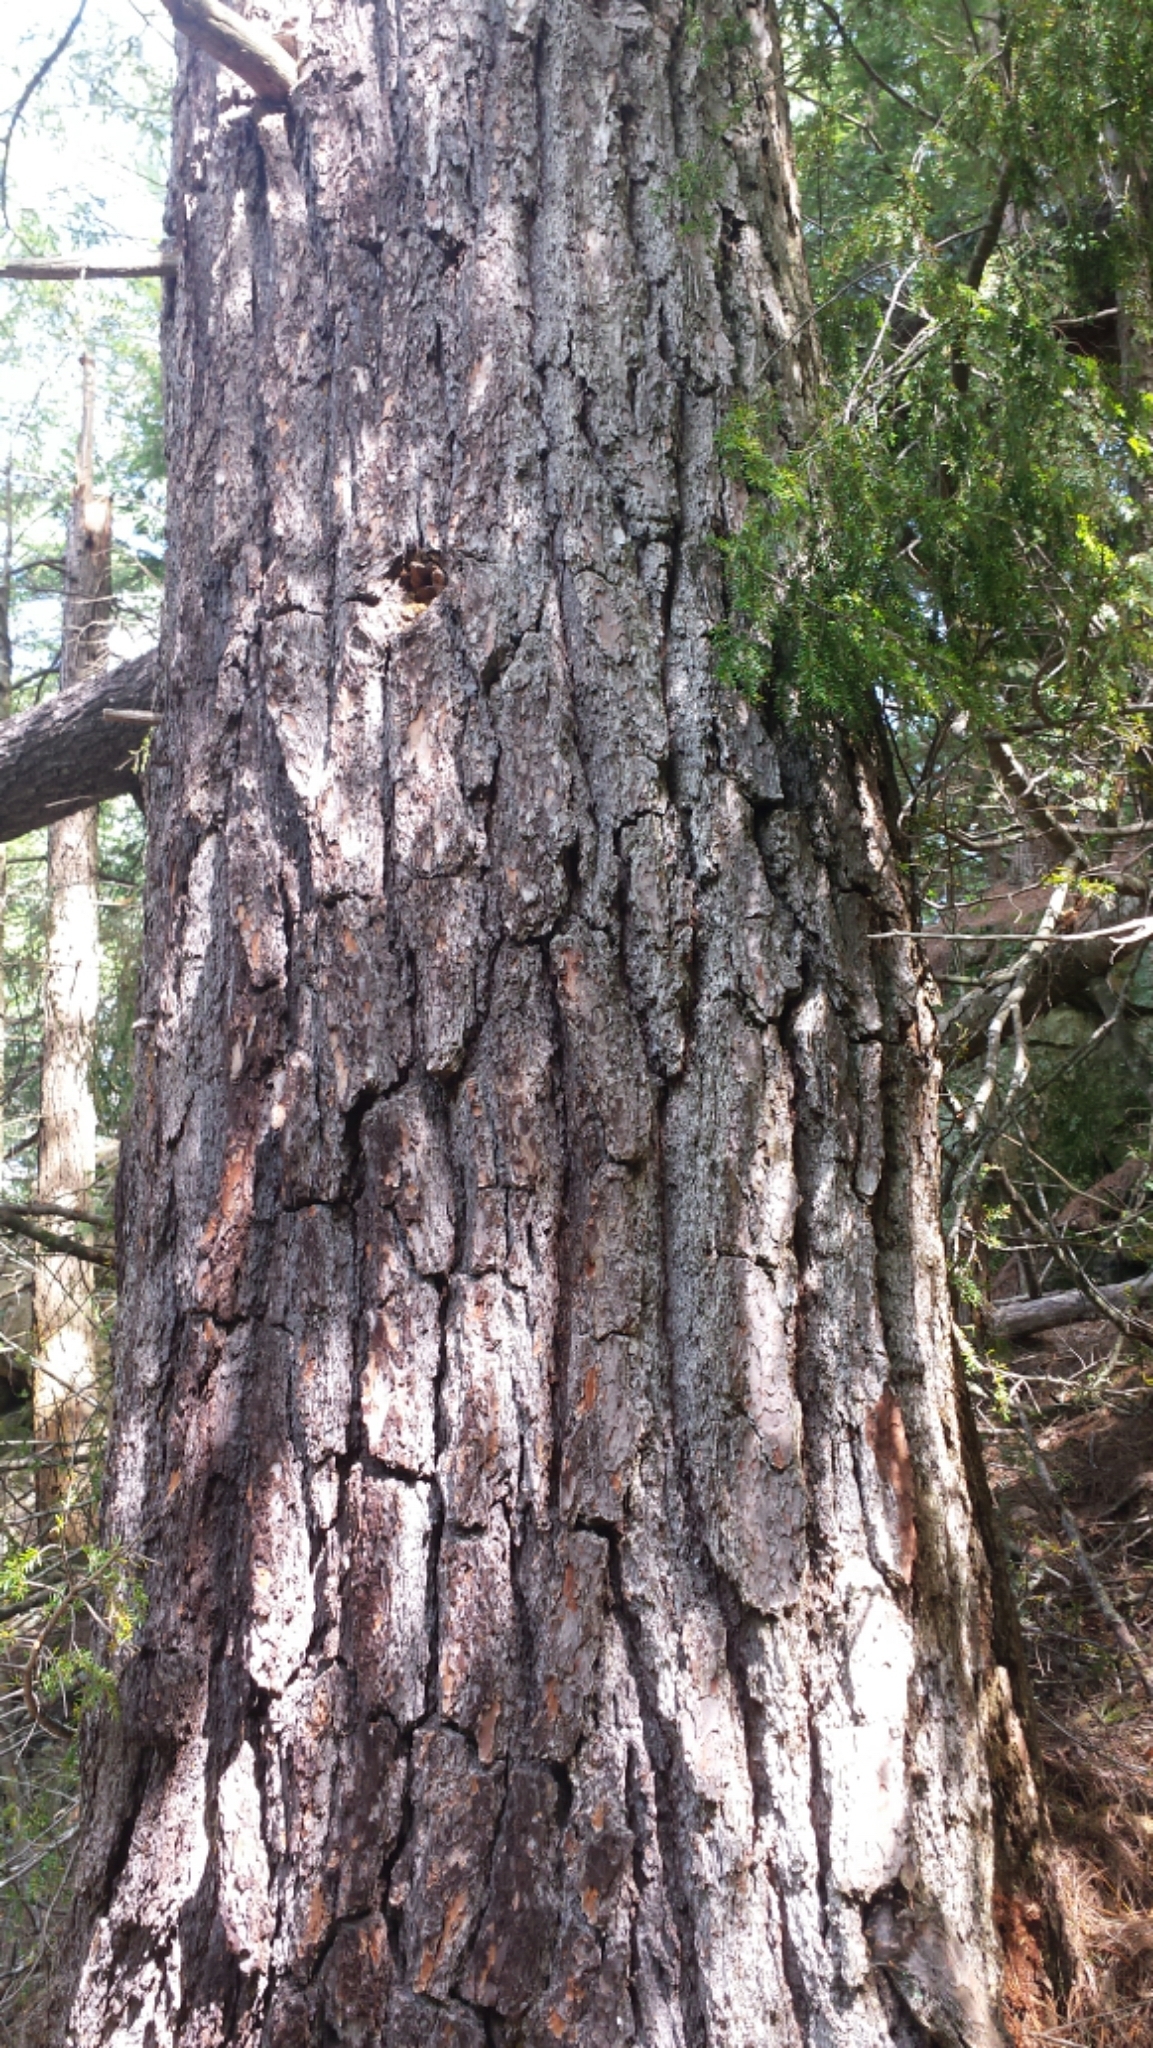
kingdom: Plantae
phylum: Tracheophyta
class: Pinopsida
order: Pinales
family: Pinaceae
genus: Pinus
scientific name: Pinus strobus
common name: Weymouth pine
